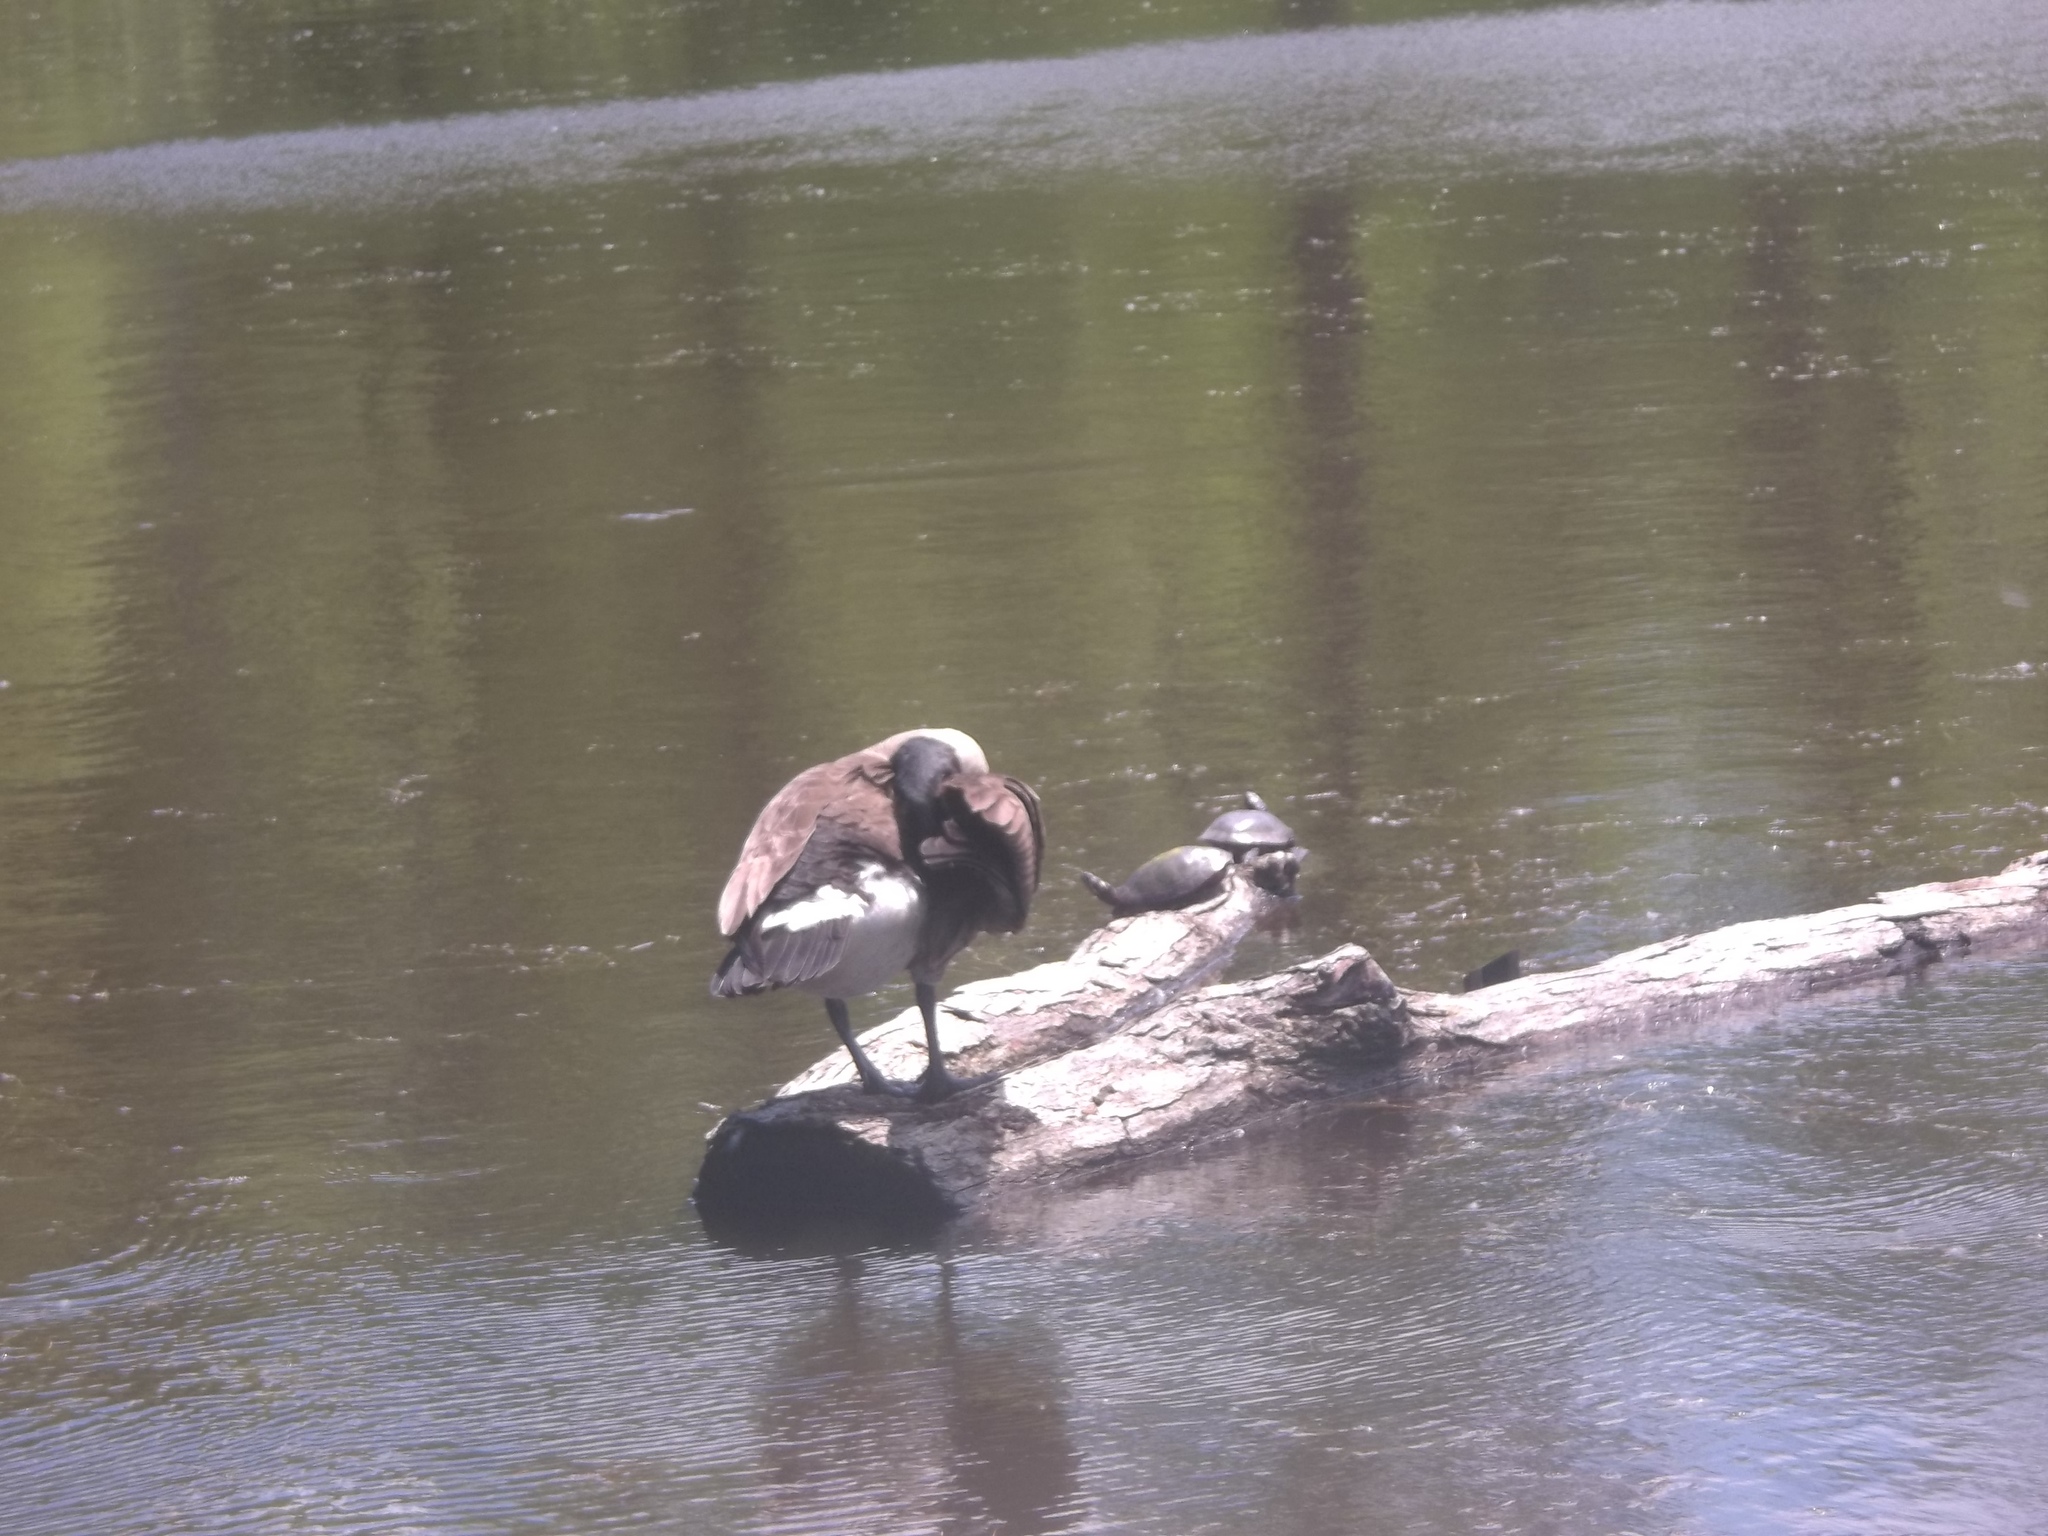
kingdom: Animalia
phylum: Chordata
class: Aves
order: Anseriformes
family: Anatidae
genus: Branta
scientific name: Branta canadensis
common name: Canada goose
